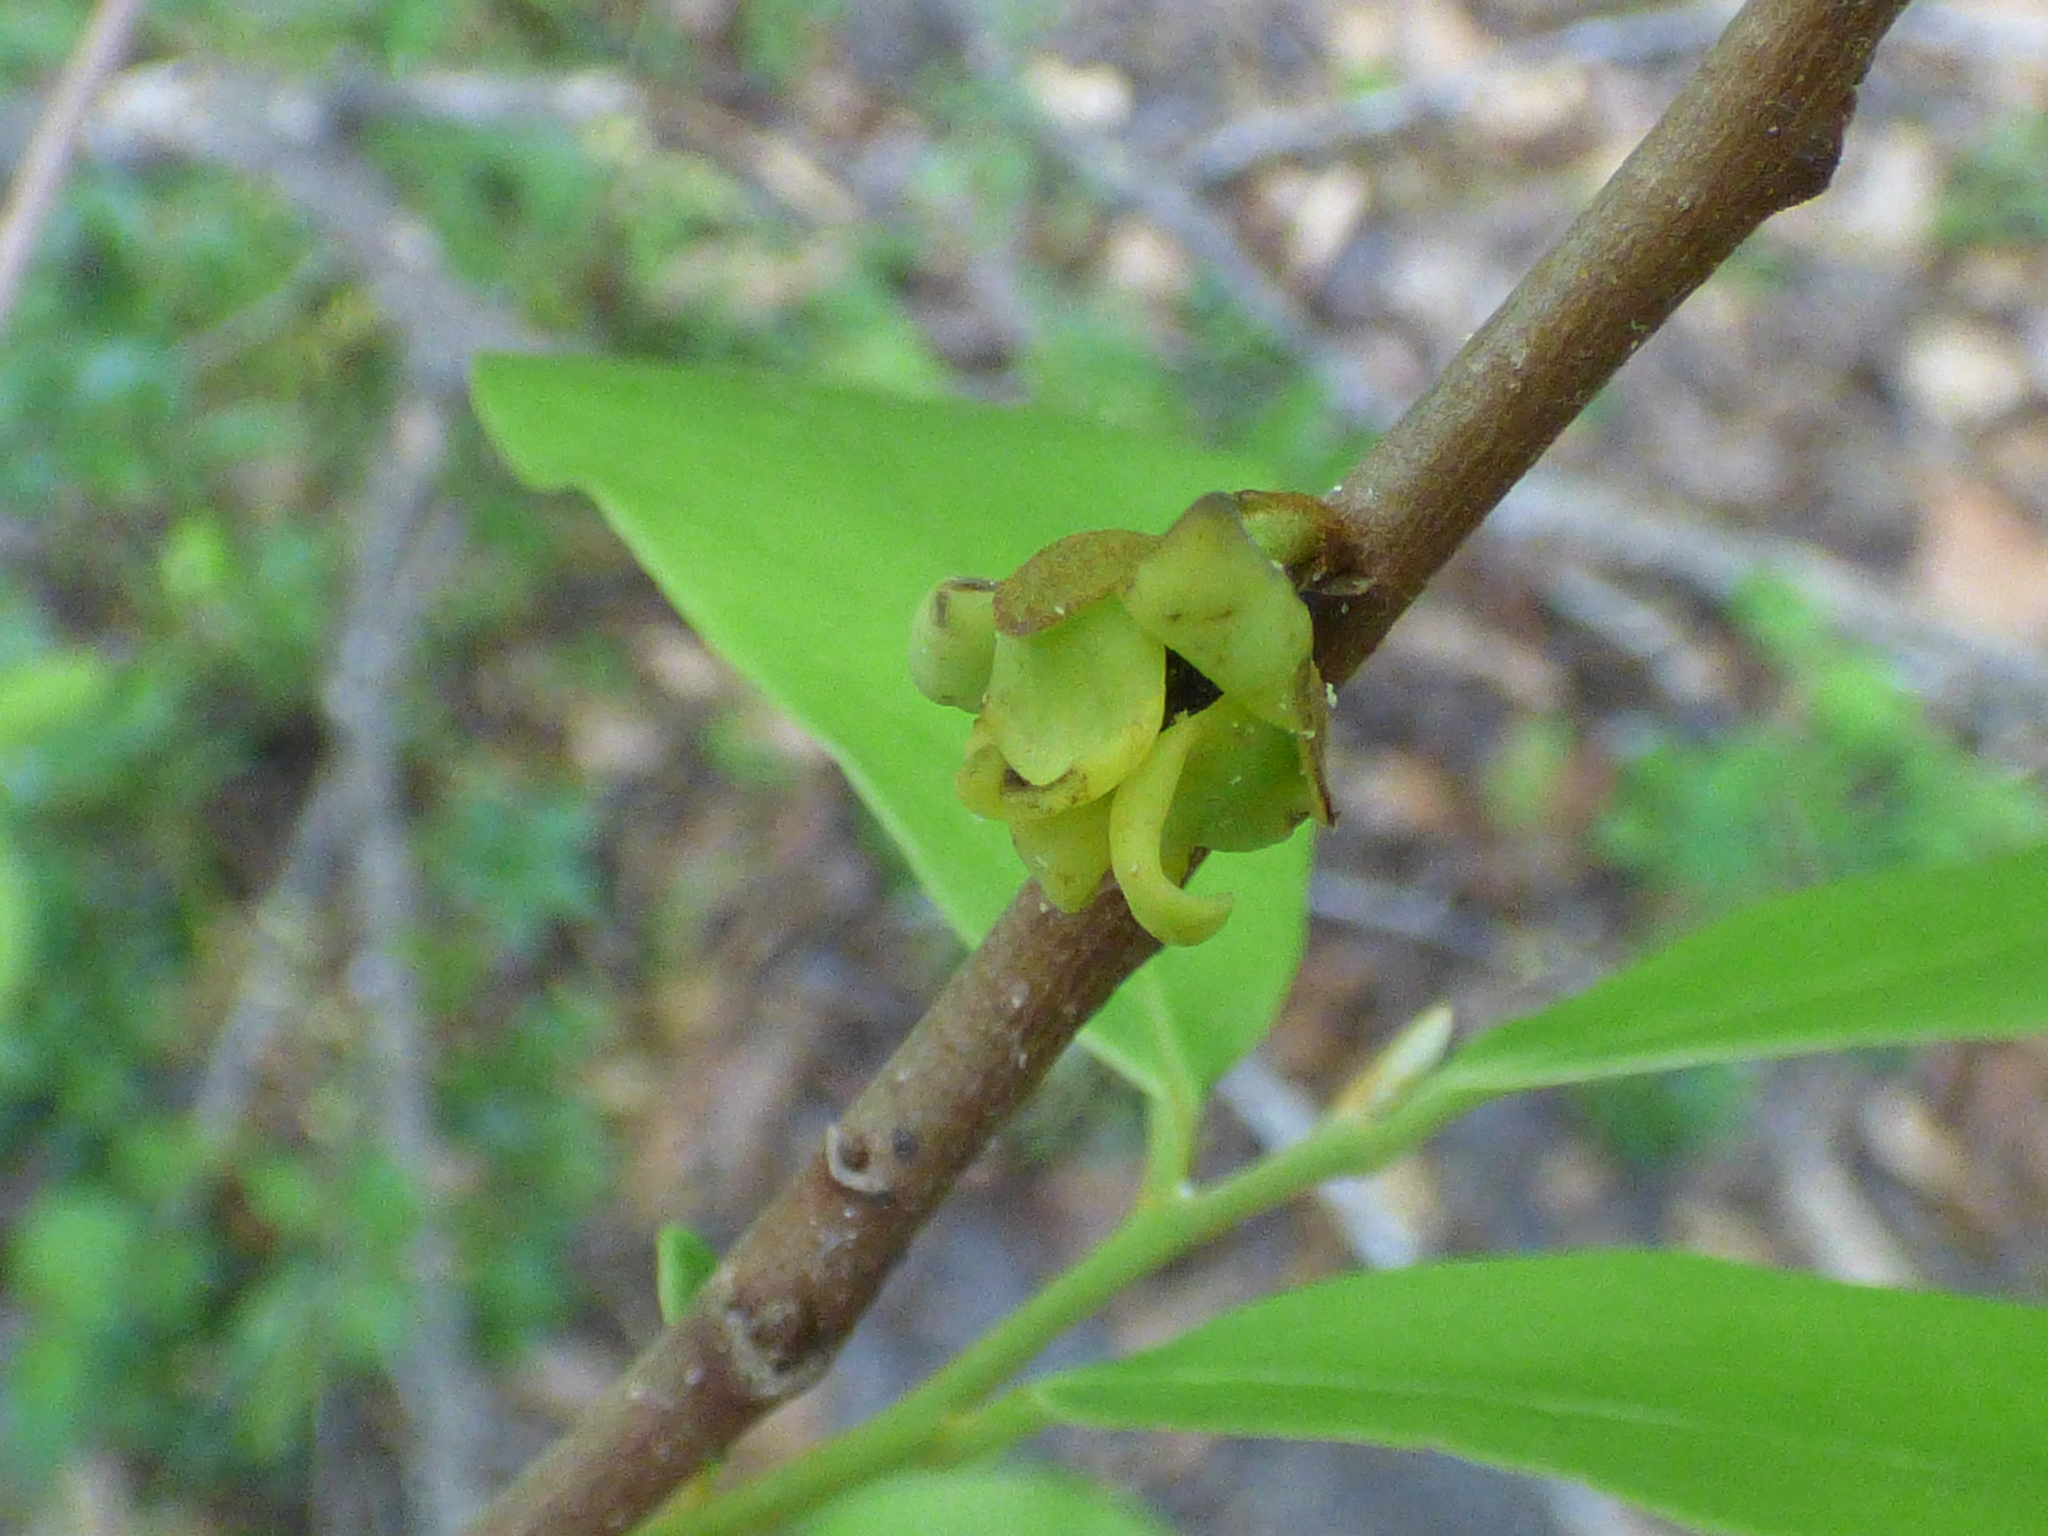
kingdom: Plantae
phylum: Tracheophyta
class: Magnoliopsida
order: Magnoliales
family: Annonaceae
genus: Asimina
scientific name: Asimina parviflora
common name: Dwarf pawpaw
